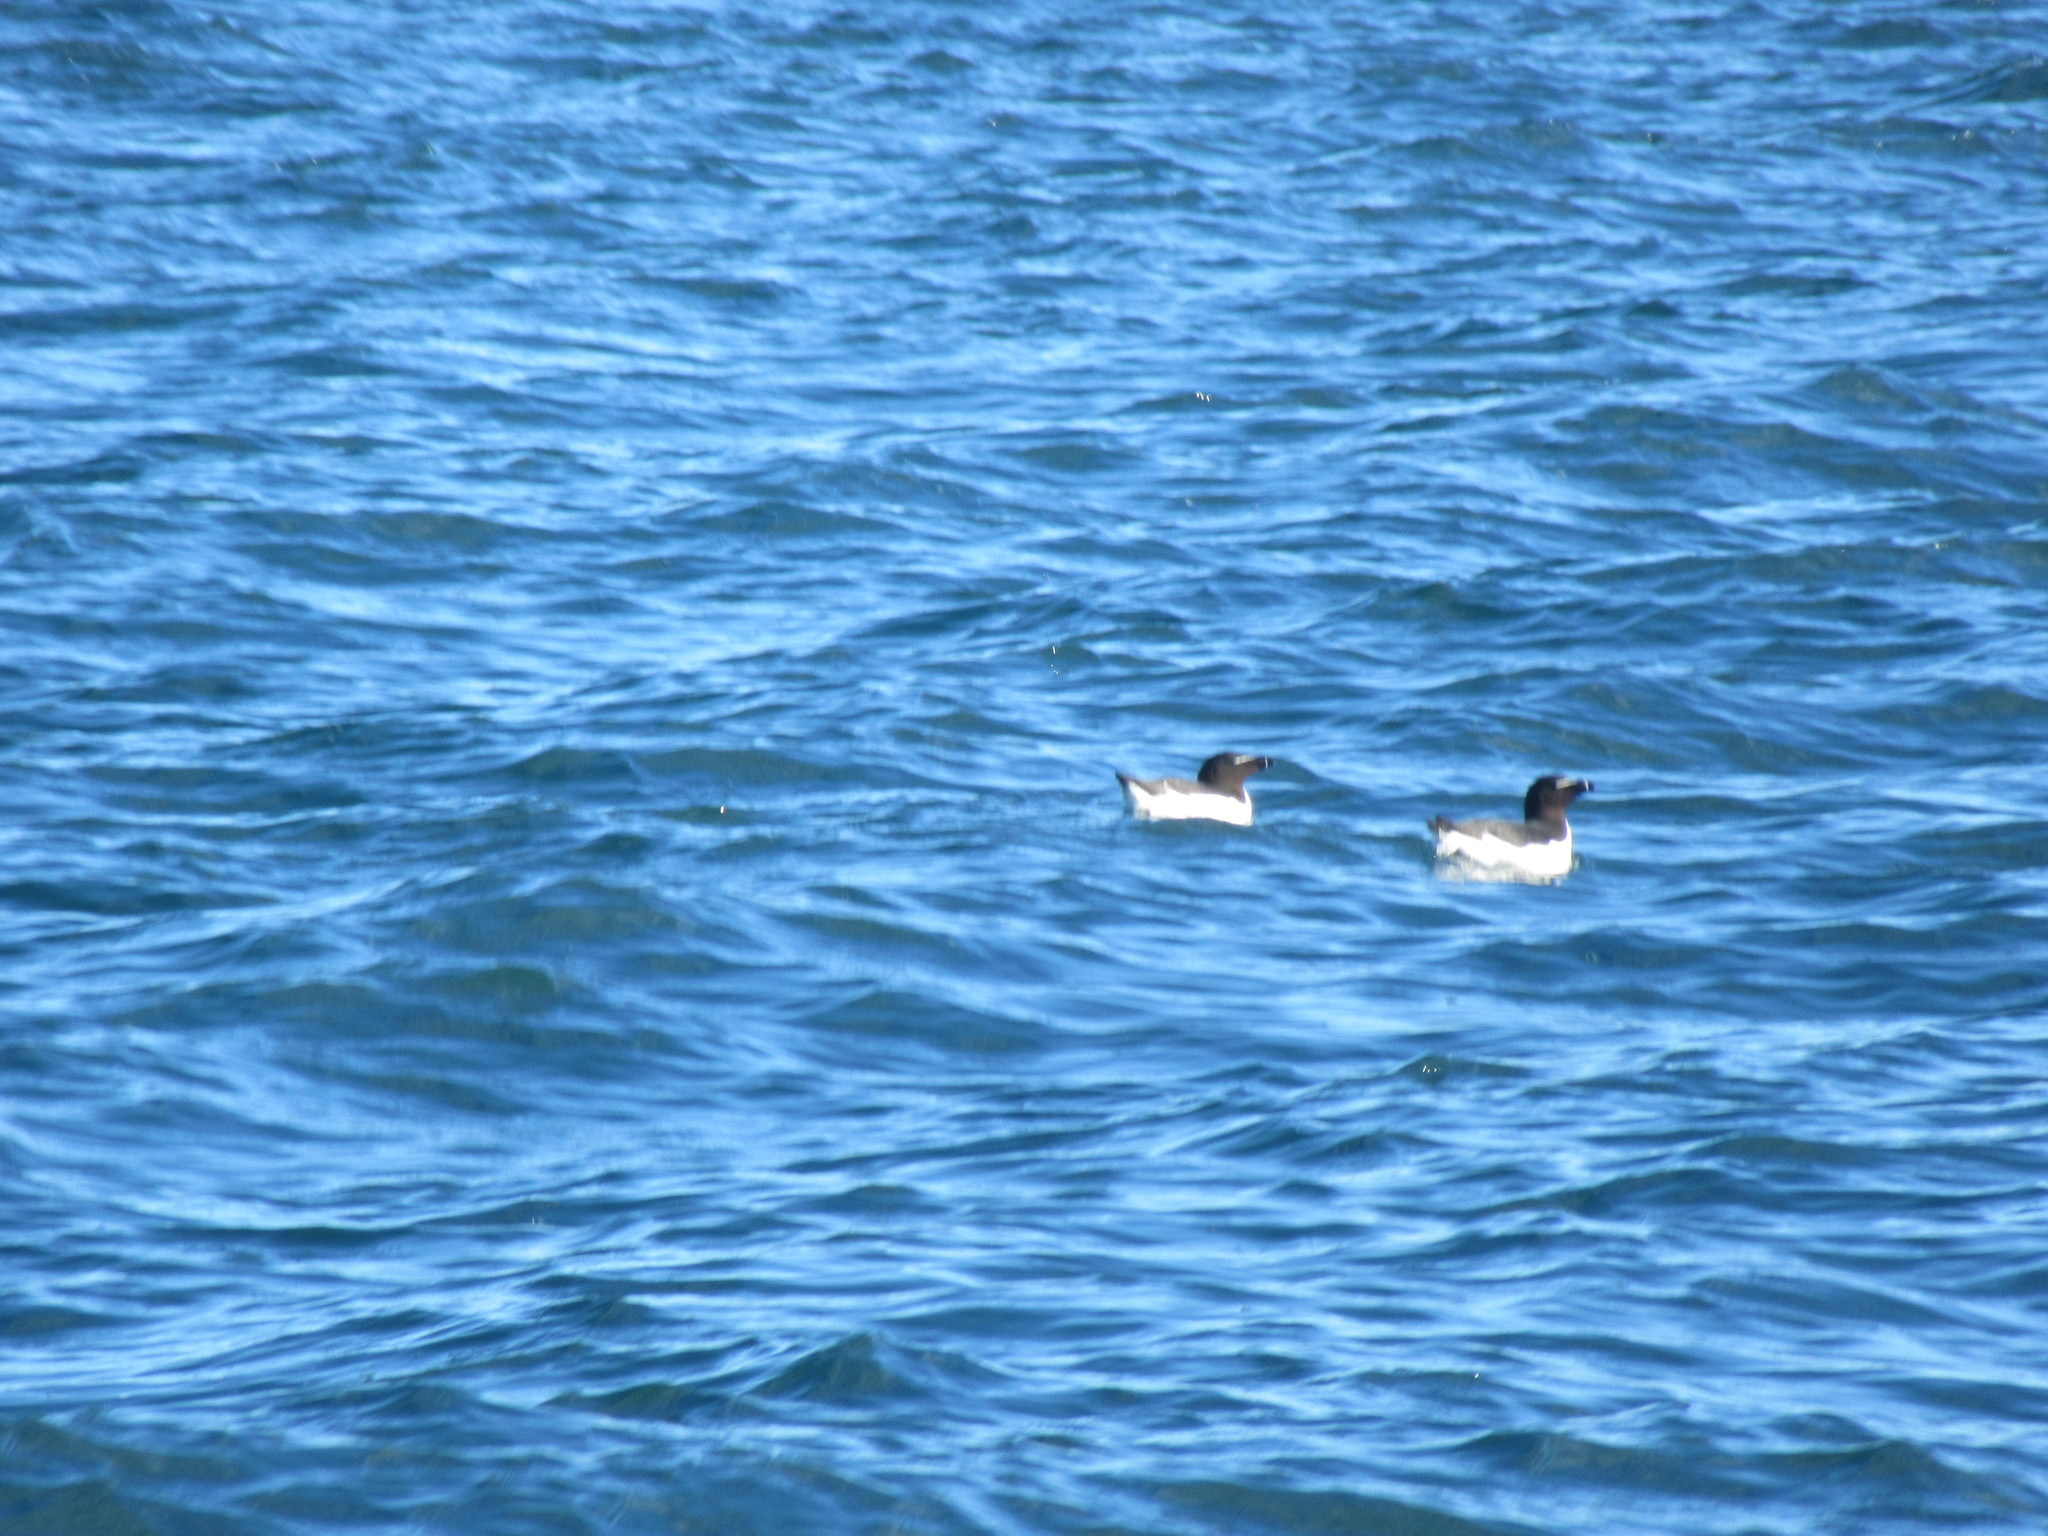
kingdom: Animalia
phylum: Chordata
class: Aves
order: Charadriiformes
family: Alcidae
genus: Alca
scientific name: Alca torda
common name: Razorbill
